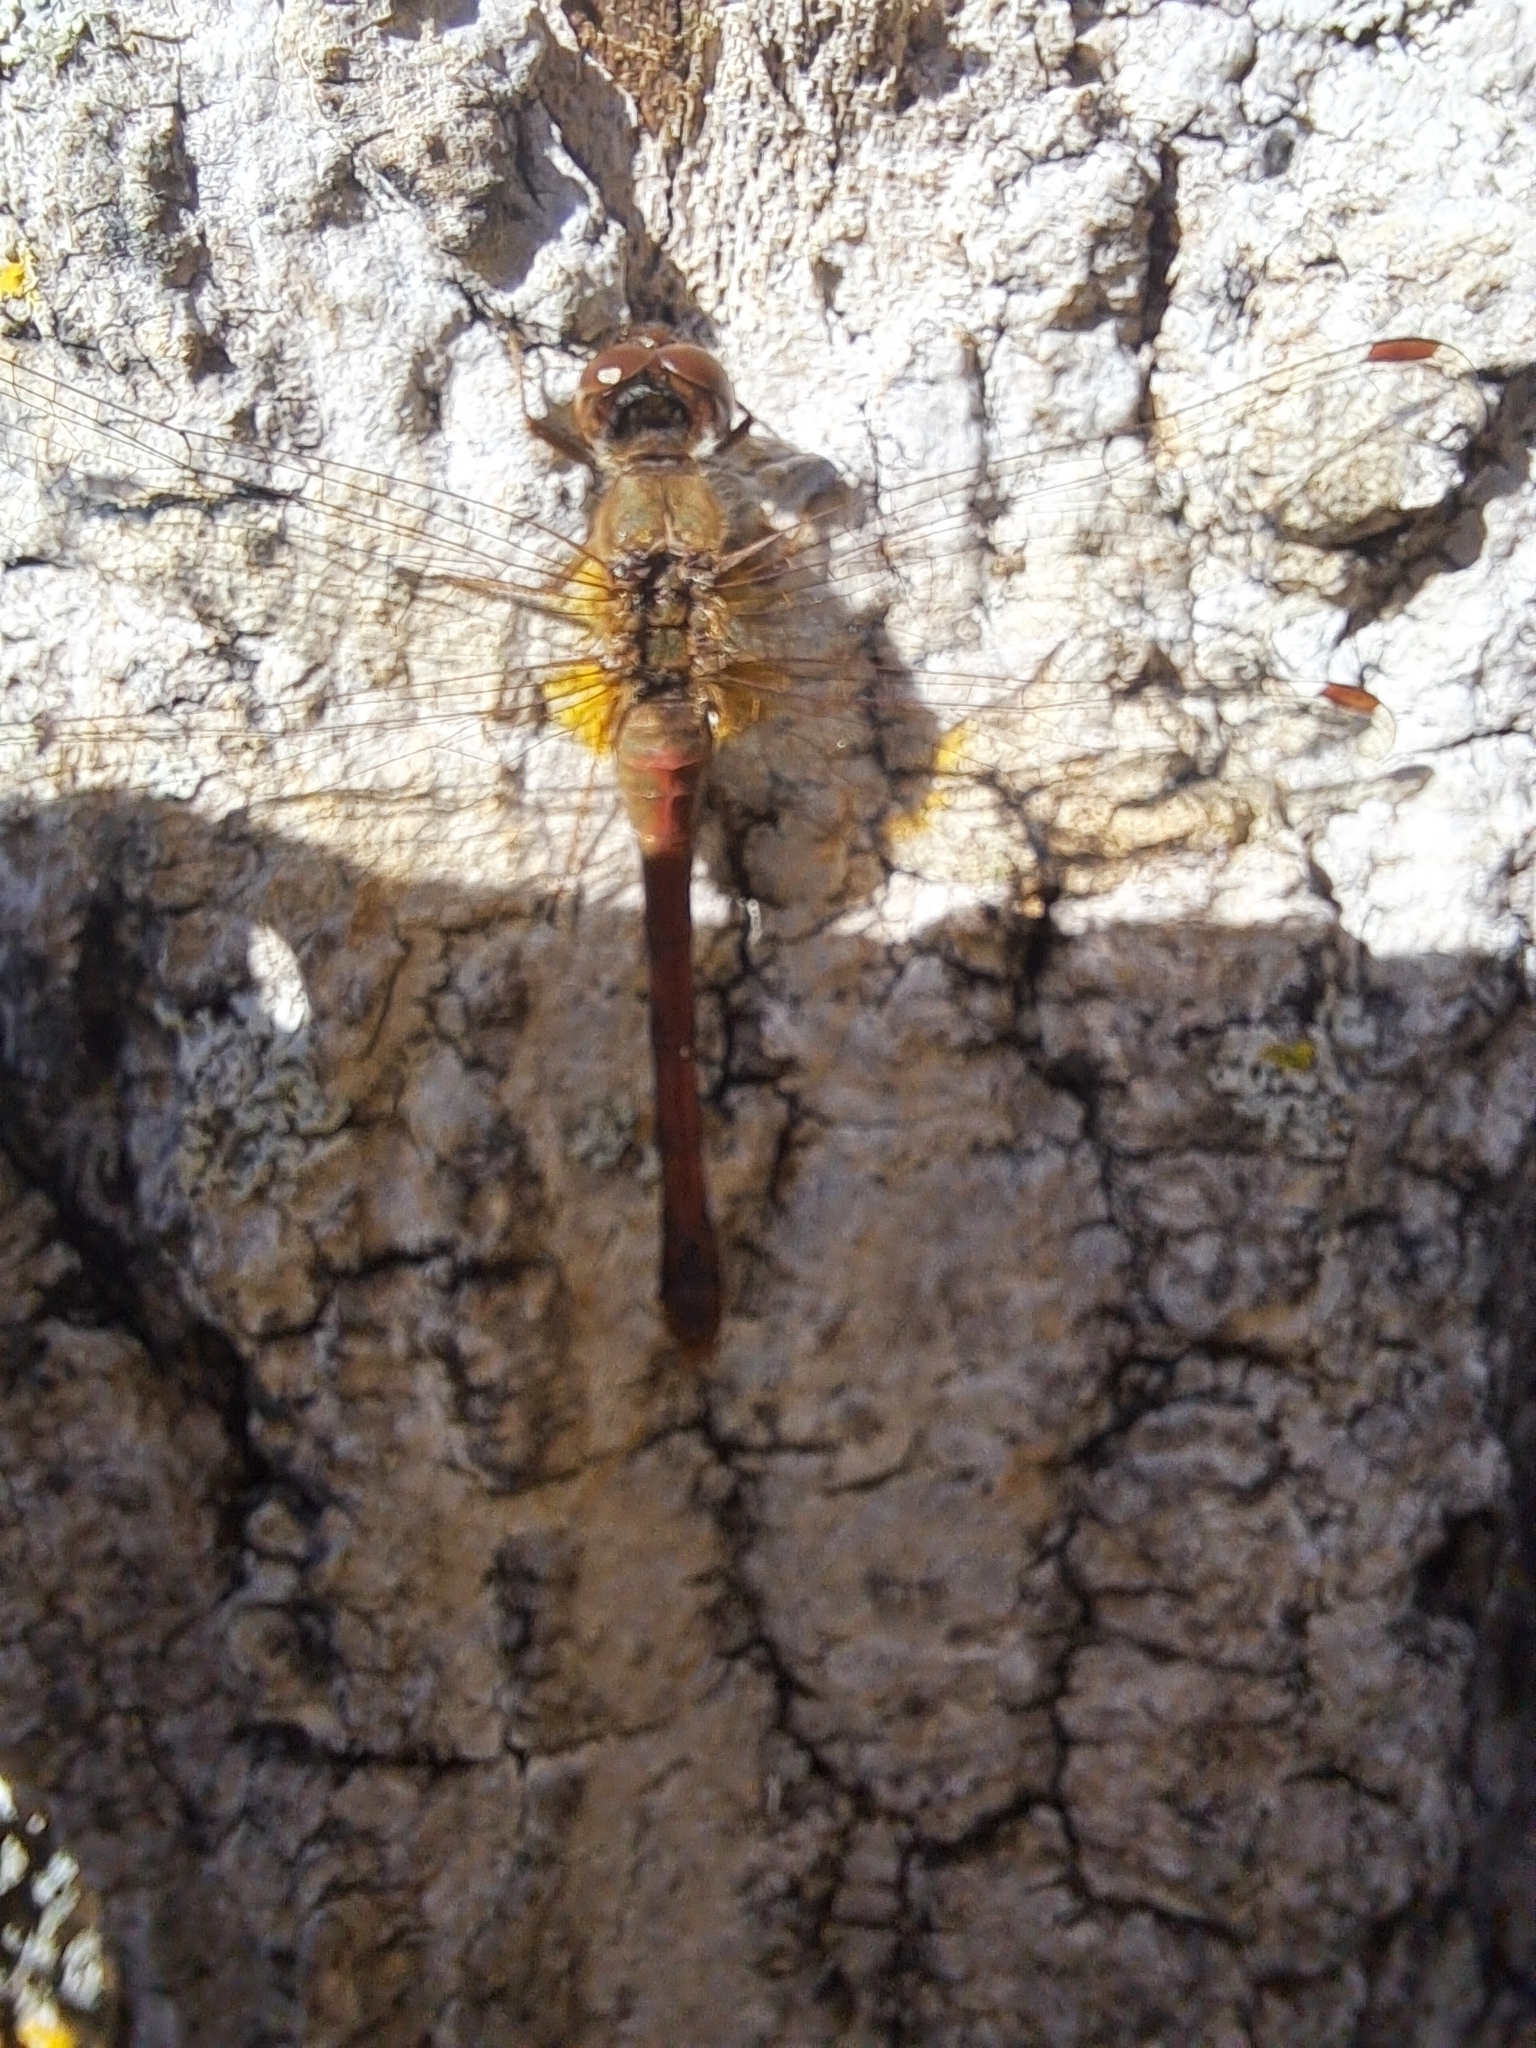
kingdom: Animalia
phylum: Arthropoda
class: Insecta
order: Odonata
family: Libellulidae
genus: Sympetrum
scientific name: Sympetrum vicinum
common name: Autumn meadowhawk
